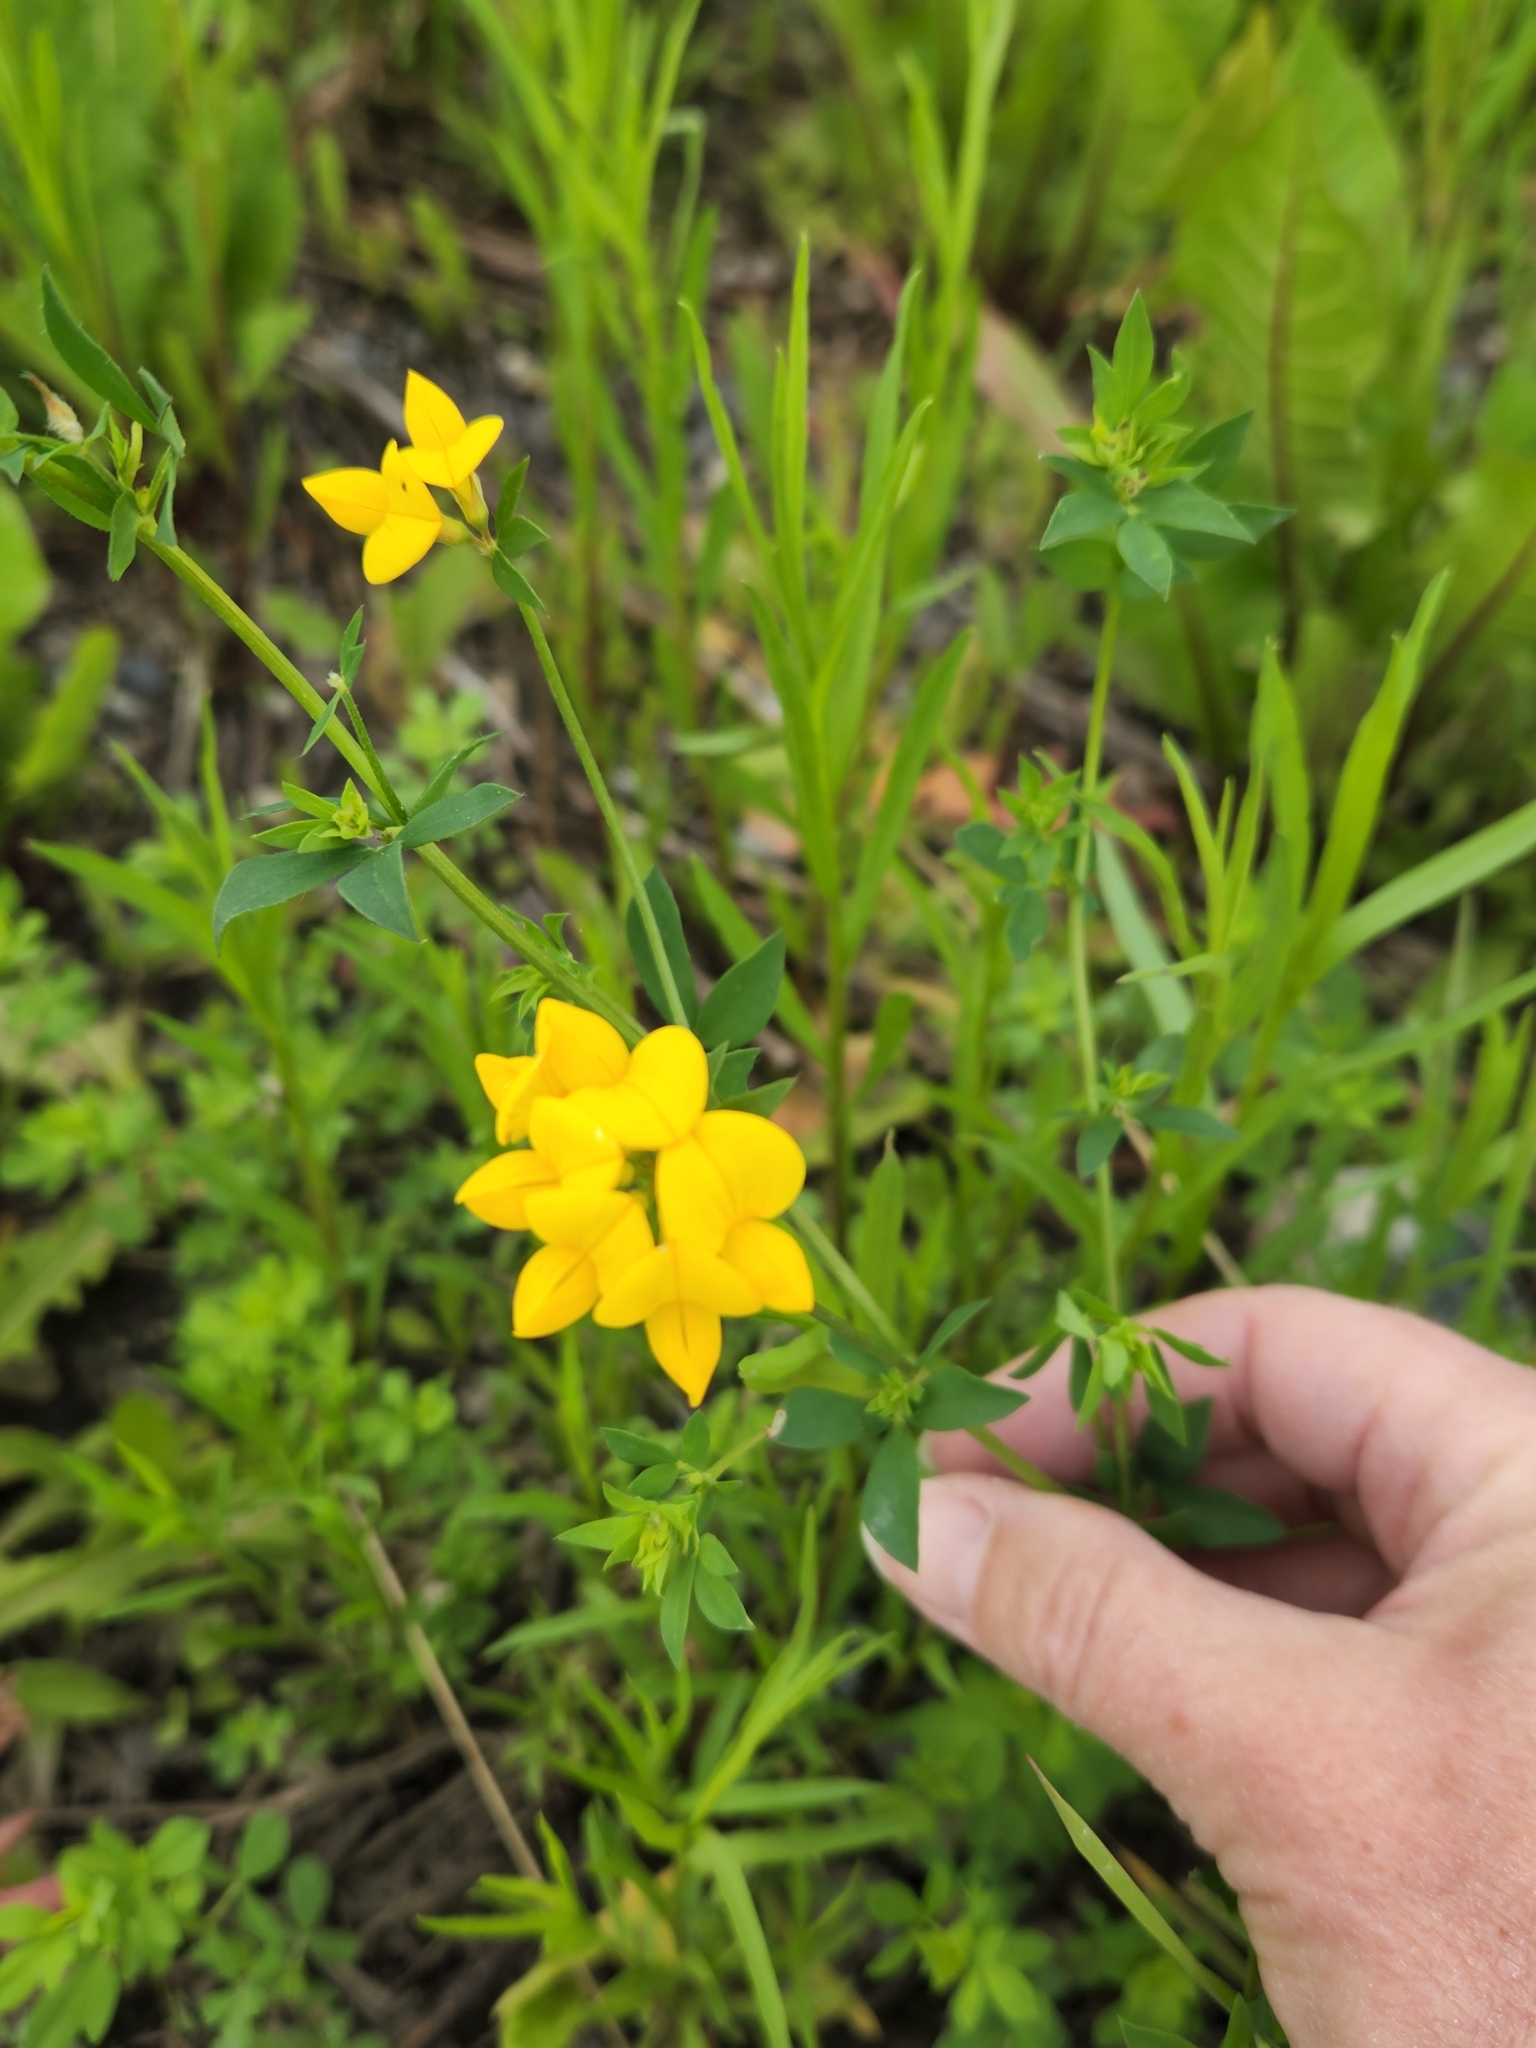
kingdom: Plantae
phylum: Tracheophyta
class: Magnoliopsida
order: Fabales
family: Fabaceae
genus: Lotus
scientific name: Lotus corniculatus
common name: Common bird's-foot-trefoil
